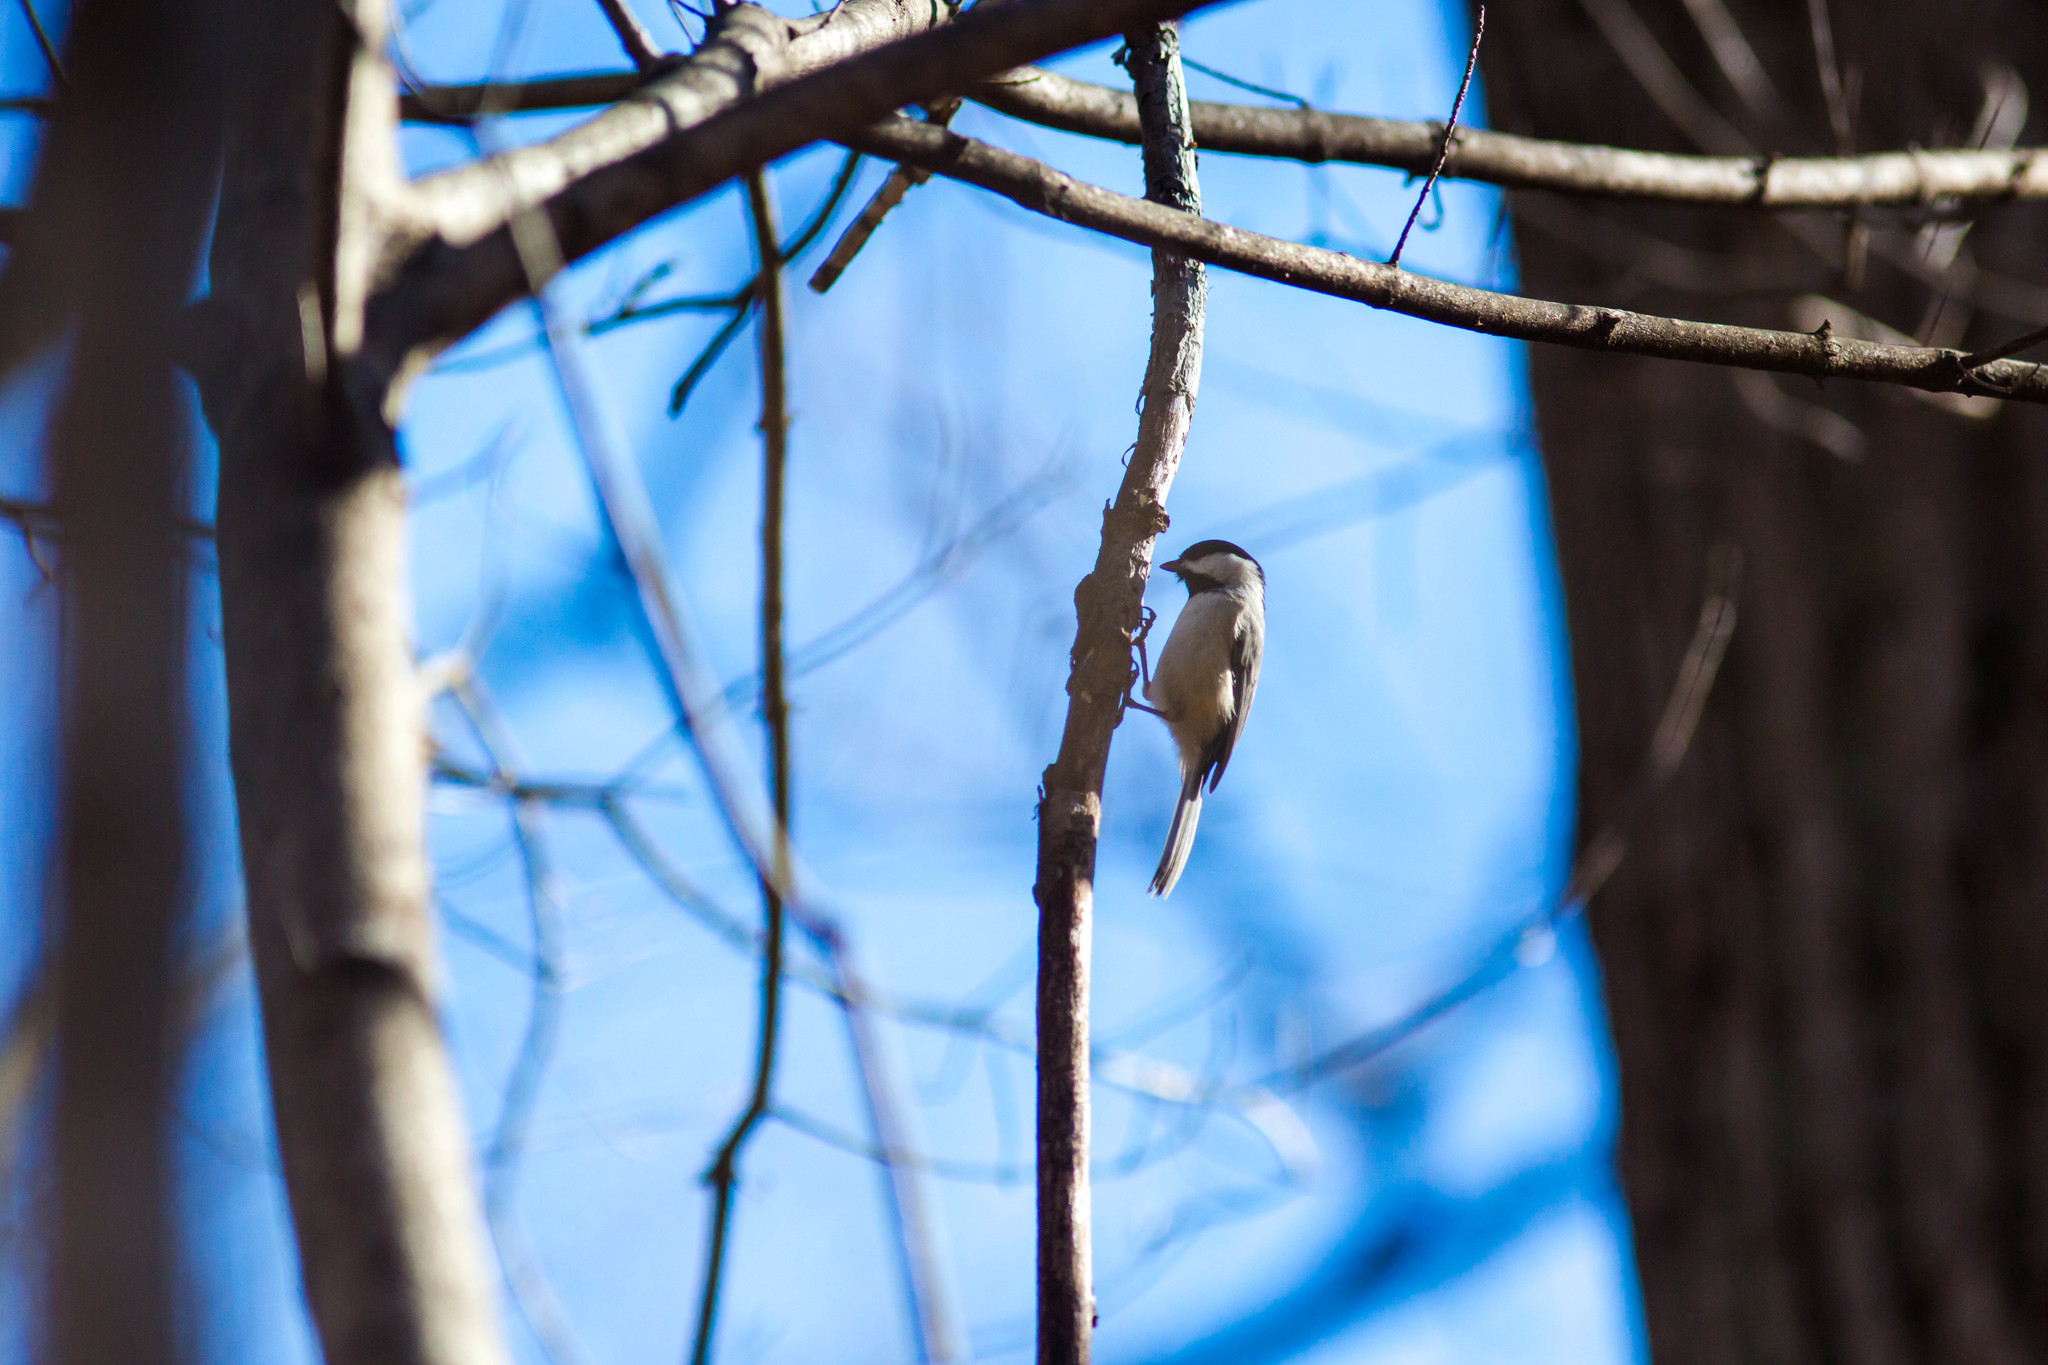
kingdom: Animalia
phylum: Chordata
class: Aves
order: Passeriformes
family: Paridae
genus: Poecile
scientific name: Poecile carolinensis
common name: Carolina chickadee
